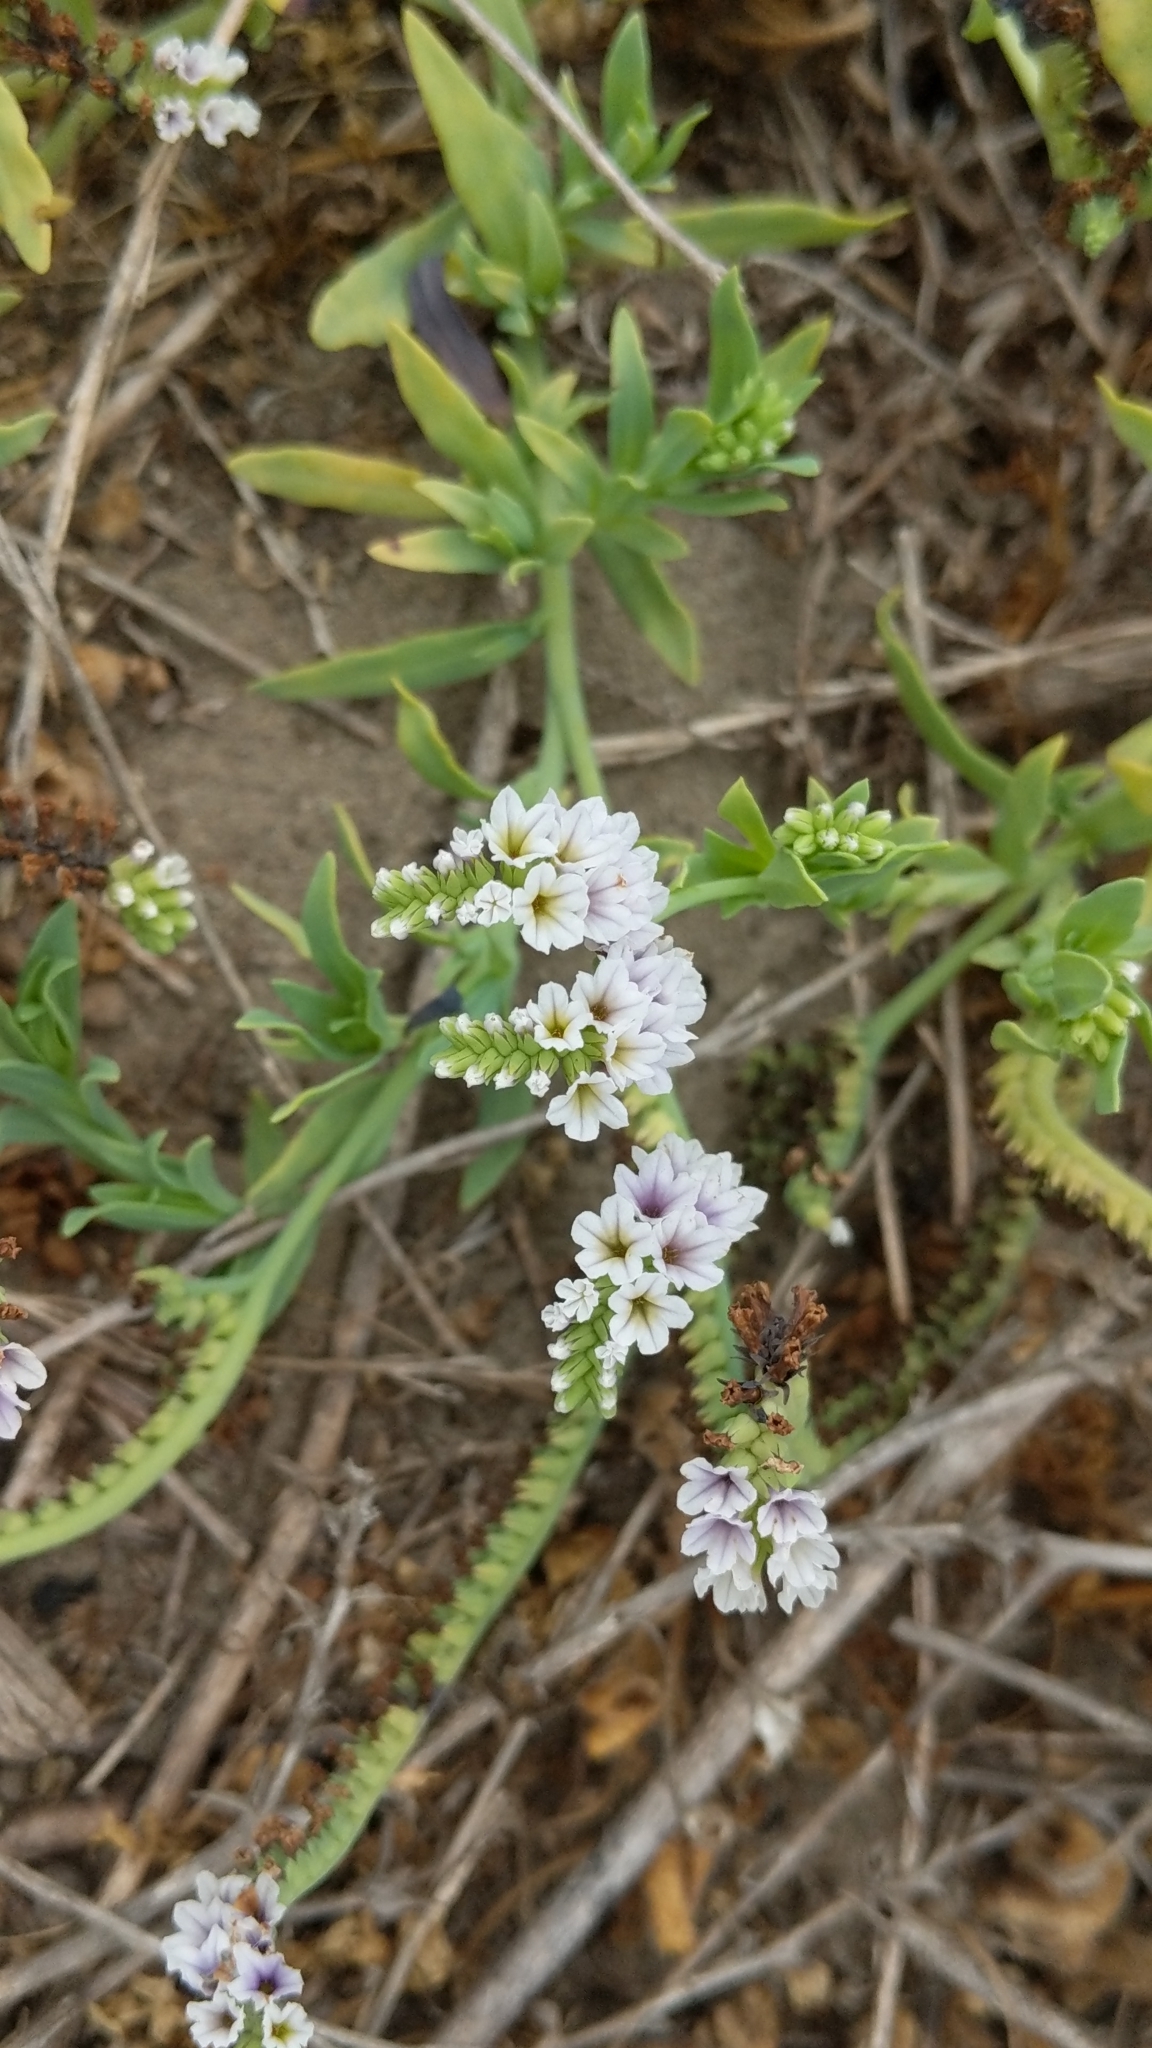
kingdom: Plantae
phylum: Tracheophyta
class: Magnoliopsida
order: Boraginales
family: Heliotropiaceae
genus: Heliotropium
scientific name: Heliotropium curassavicum
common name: Seaside heliotrope
